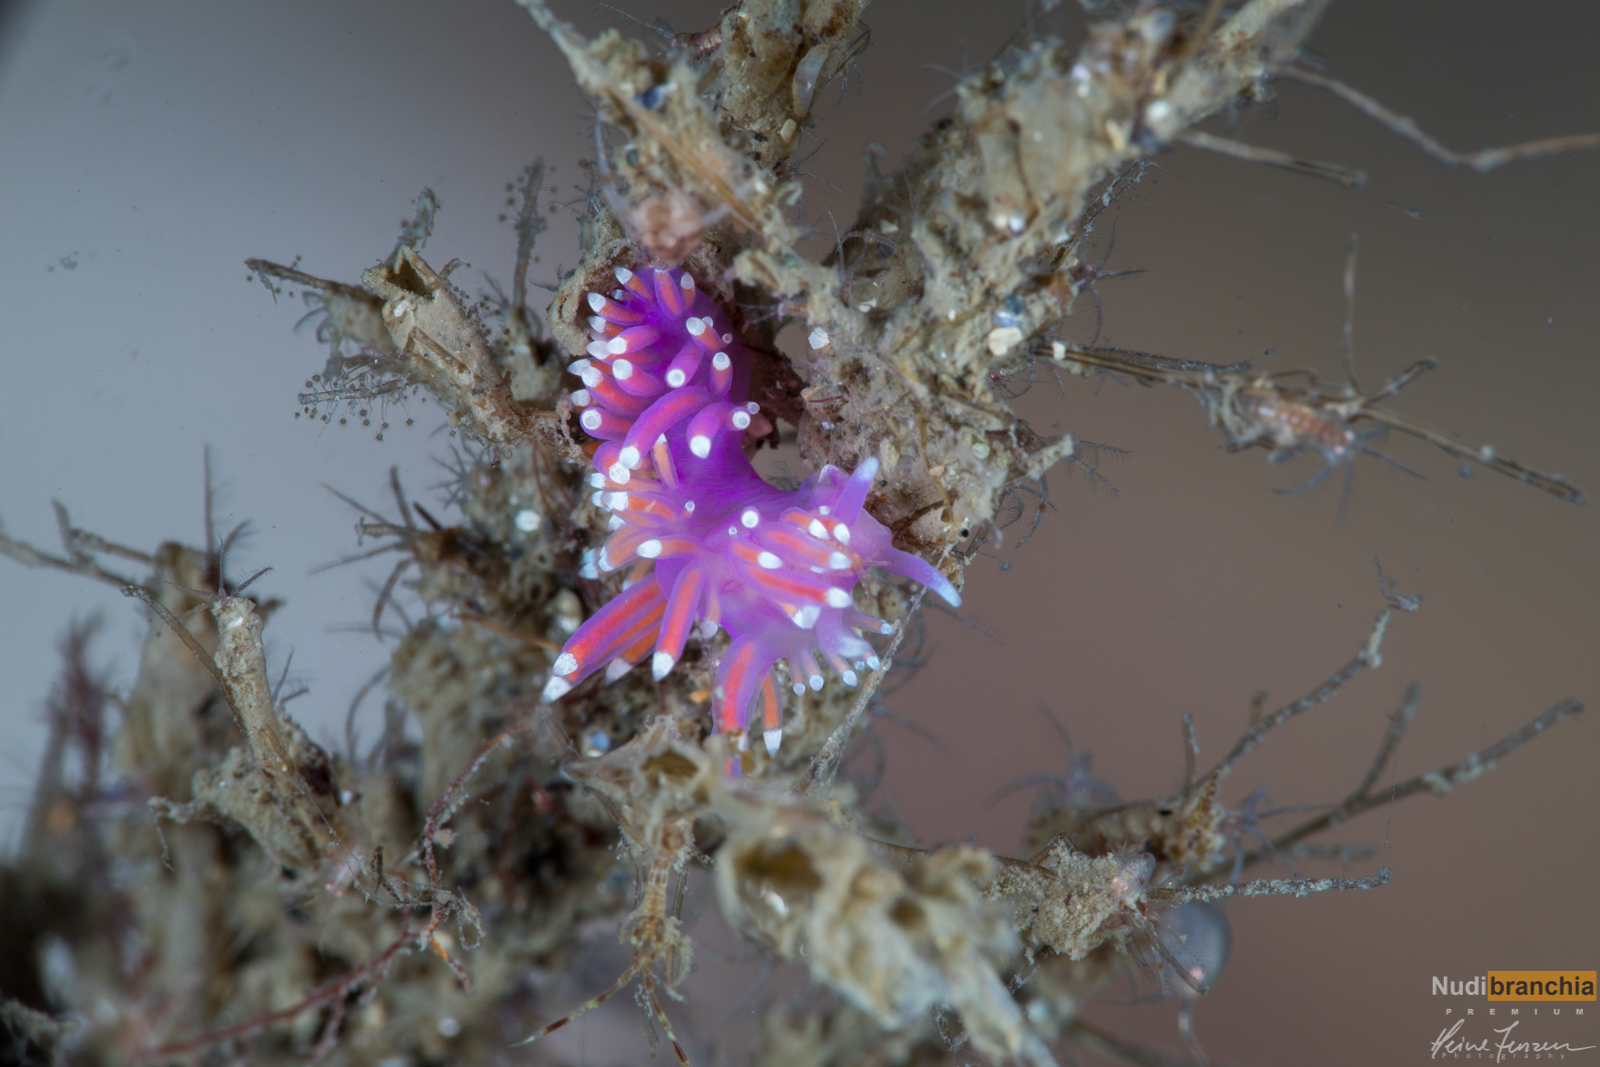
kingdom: Animalia
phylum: Mollusca
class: Gastropoda
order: Nudibranchia
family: Flabellinidae
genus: Edmundsella
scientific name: Edmundsella pedata
